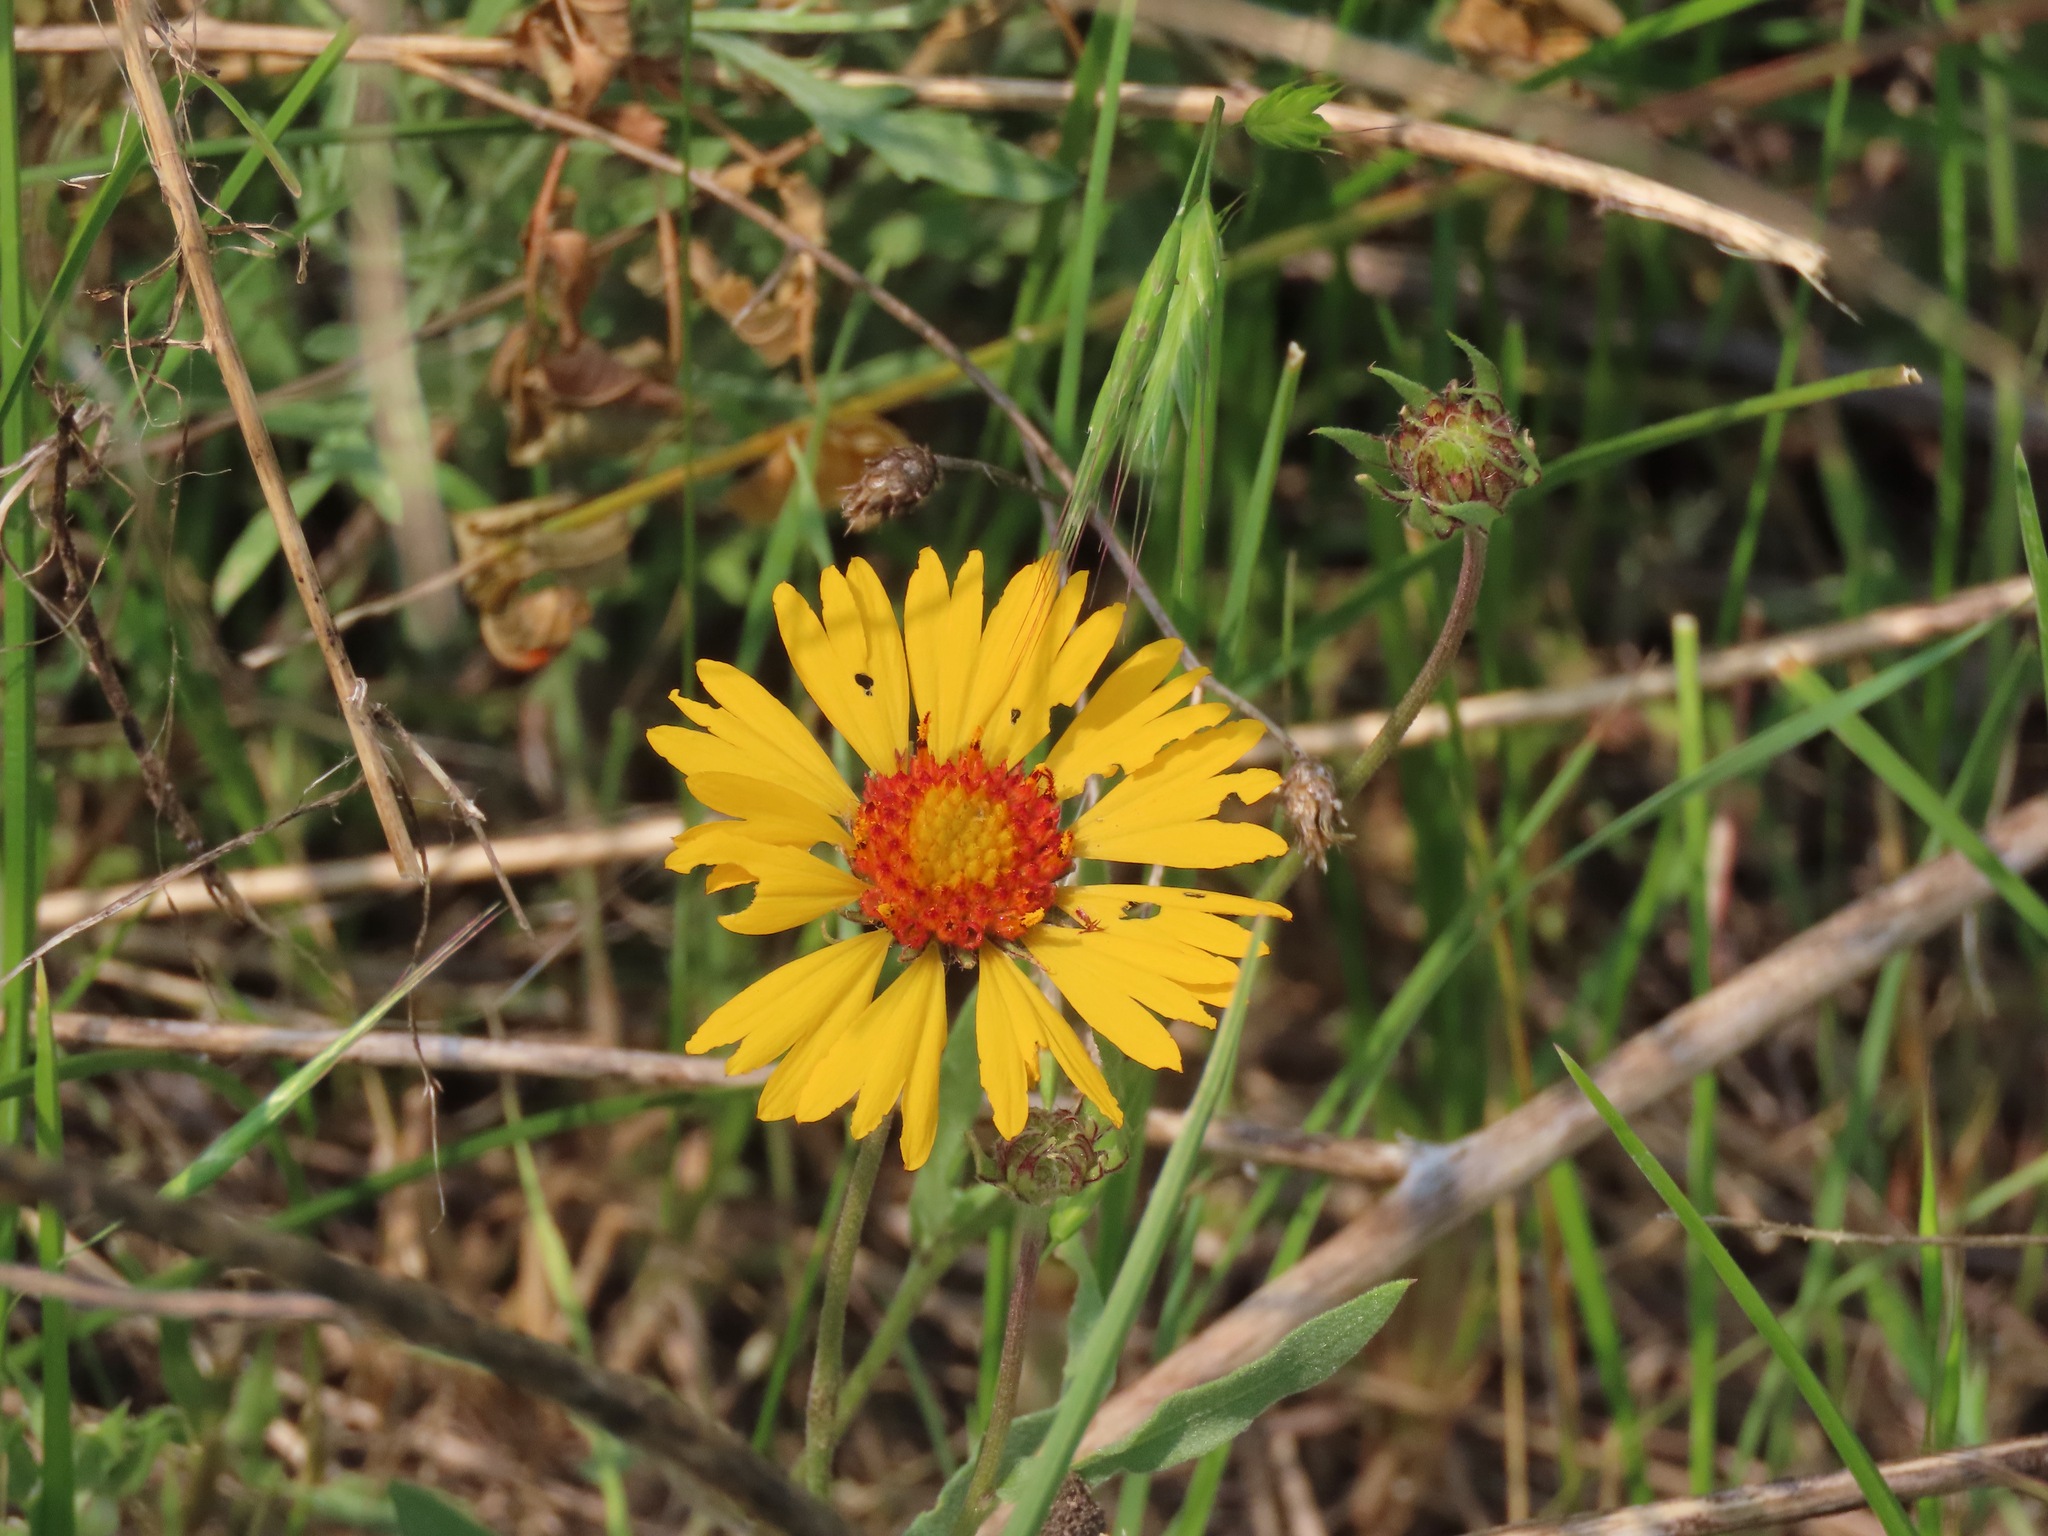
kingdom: Plantae
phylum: Tracheophyta
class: Magnoliopsida
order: Asterales
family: Asteraceae
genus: Gaillardia
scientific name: Gaillardia aristata
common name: Blanket-flower
